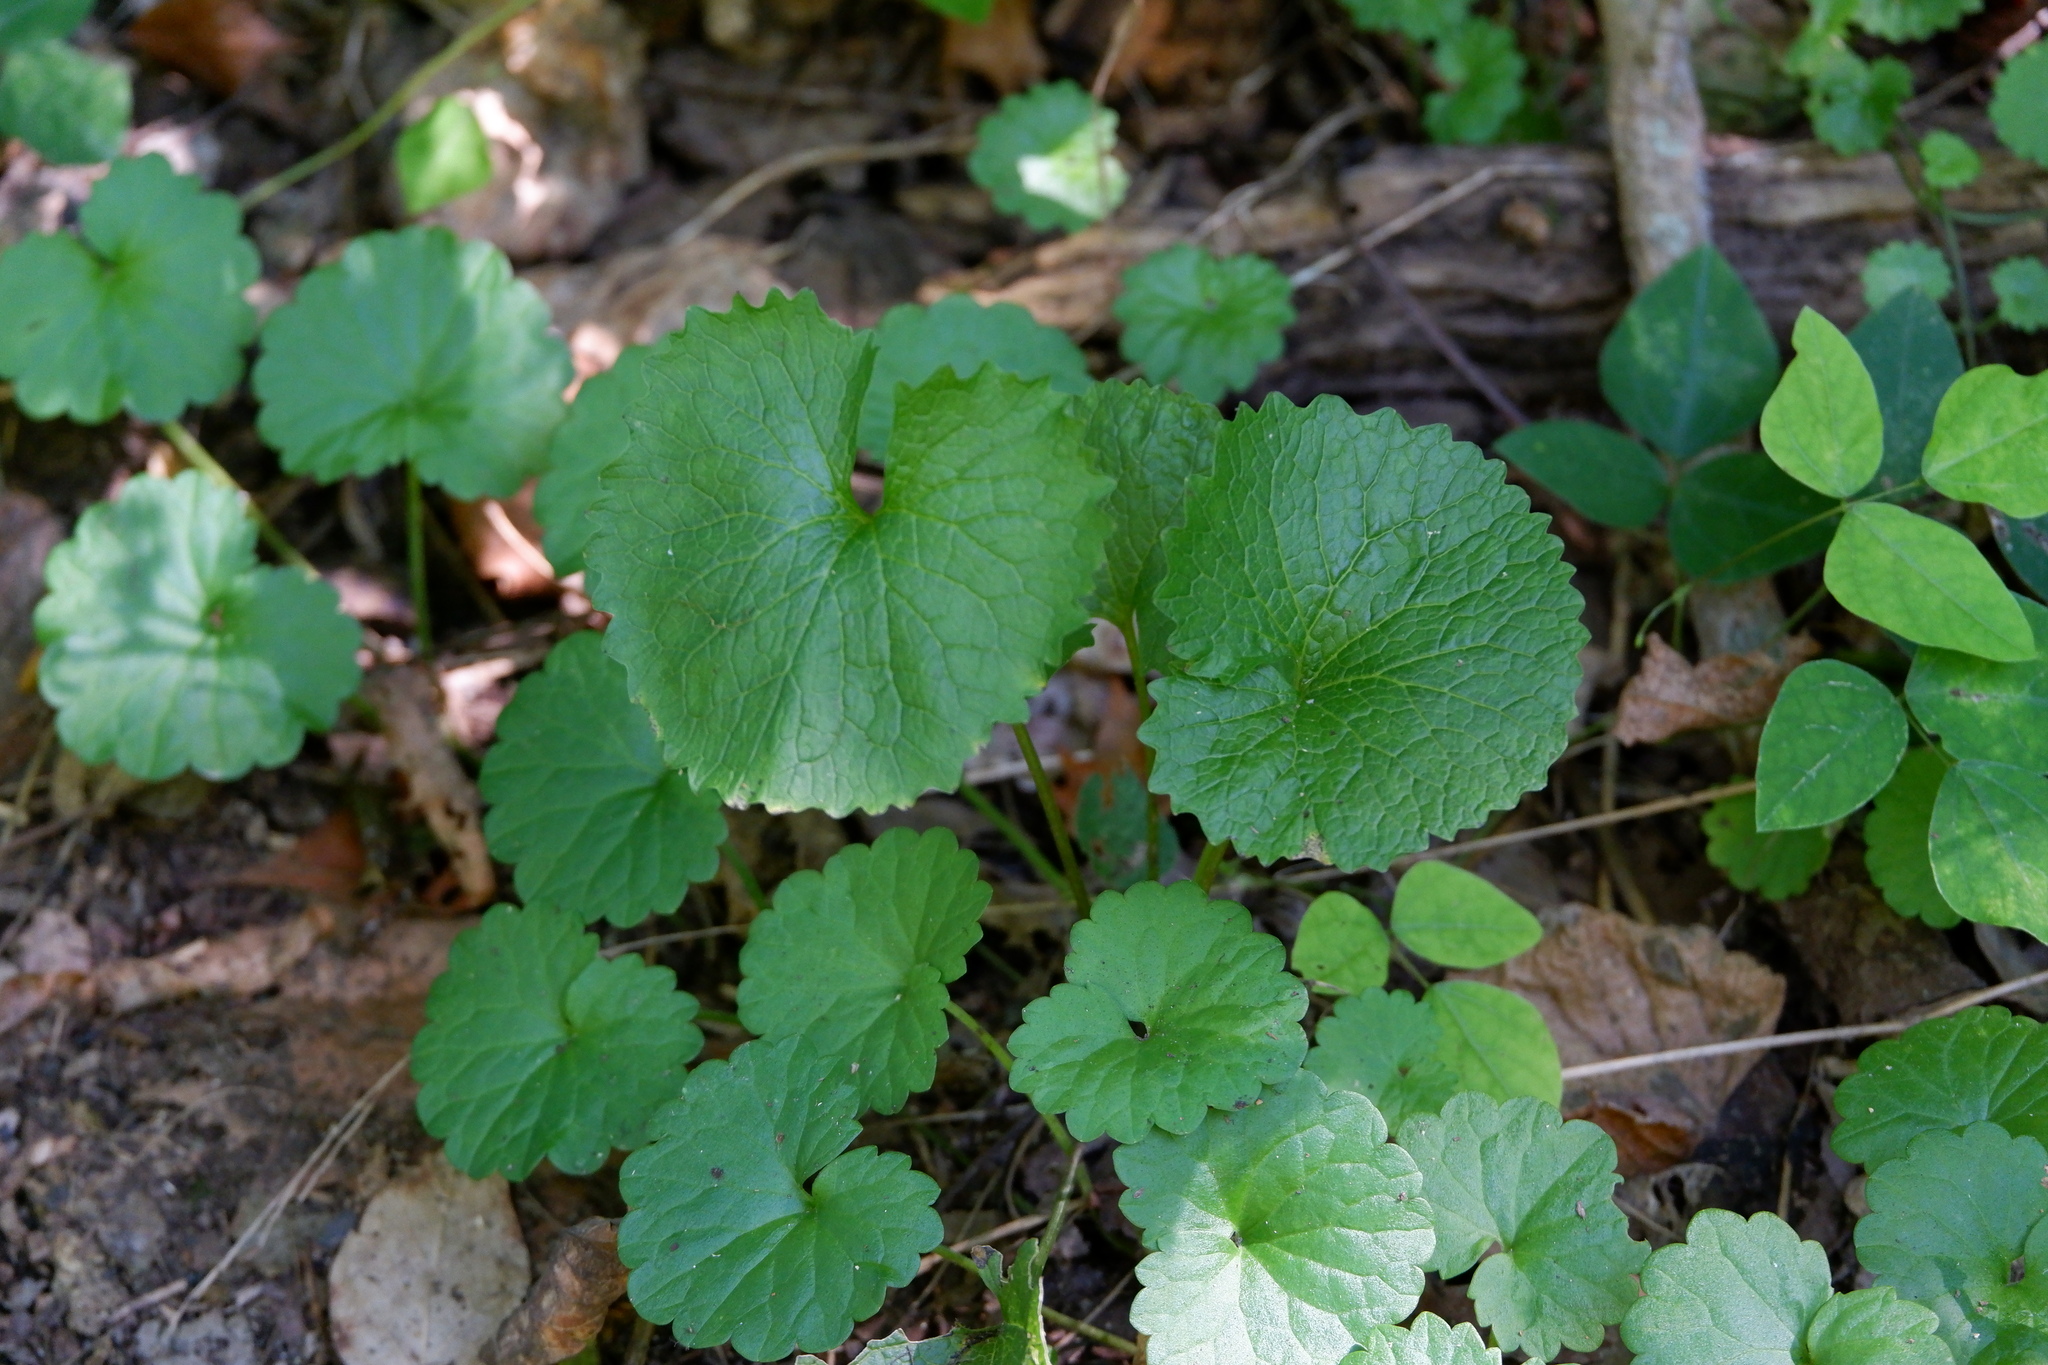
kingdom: Plantae
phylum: Tracheophyta
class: Magnoliopsida
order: Brassicales
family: Brassicaceae
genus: Alliaria
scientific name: Alliaria petiolata
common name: Garlic mustard
